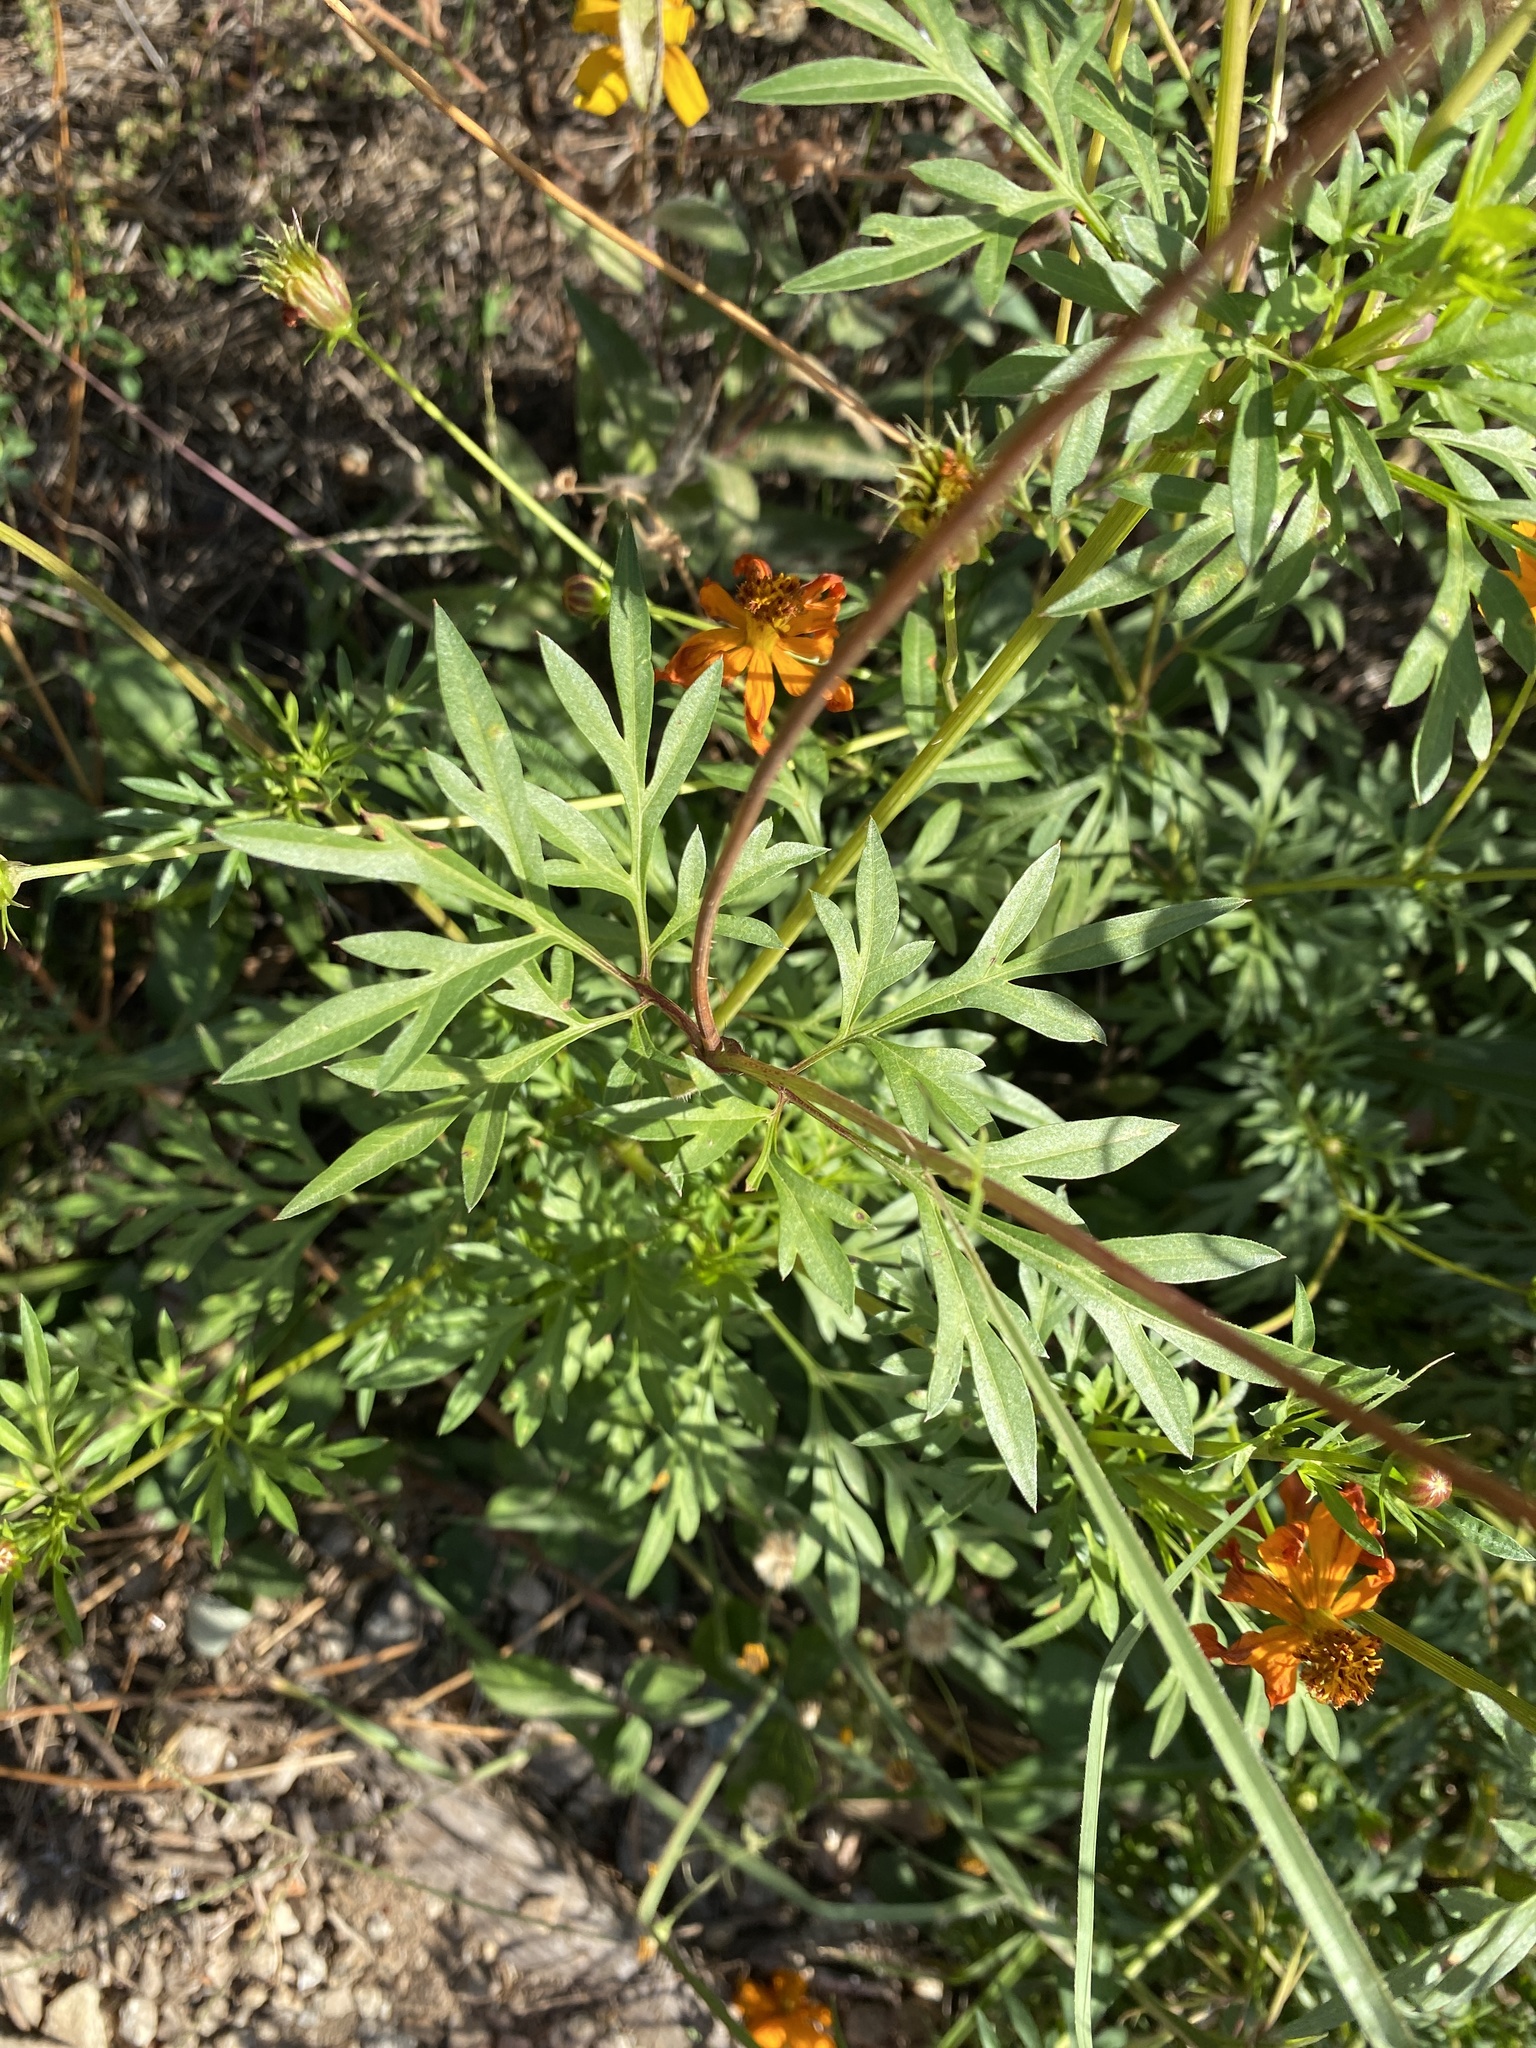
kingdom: Plantae
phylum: Tracheophyta
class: Magnoliopsida
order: Asterales
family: Asteraceae
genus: Cosmos
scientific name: Cosmos sulphureus
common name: Sulphur cosmos
